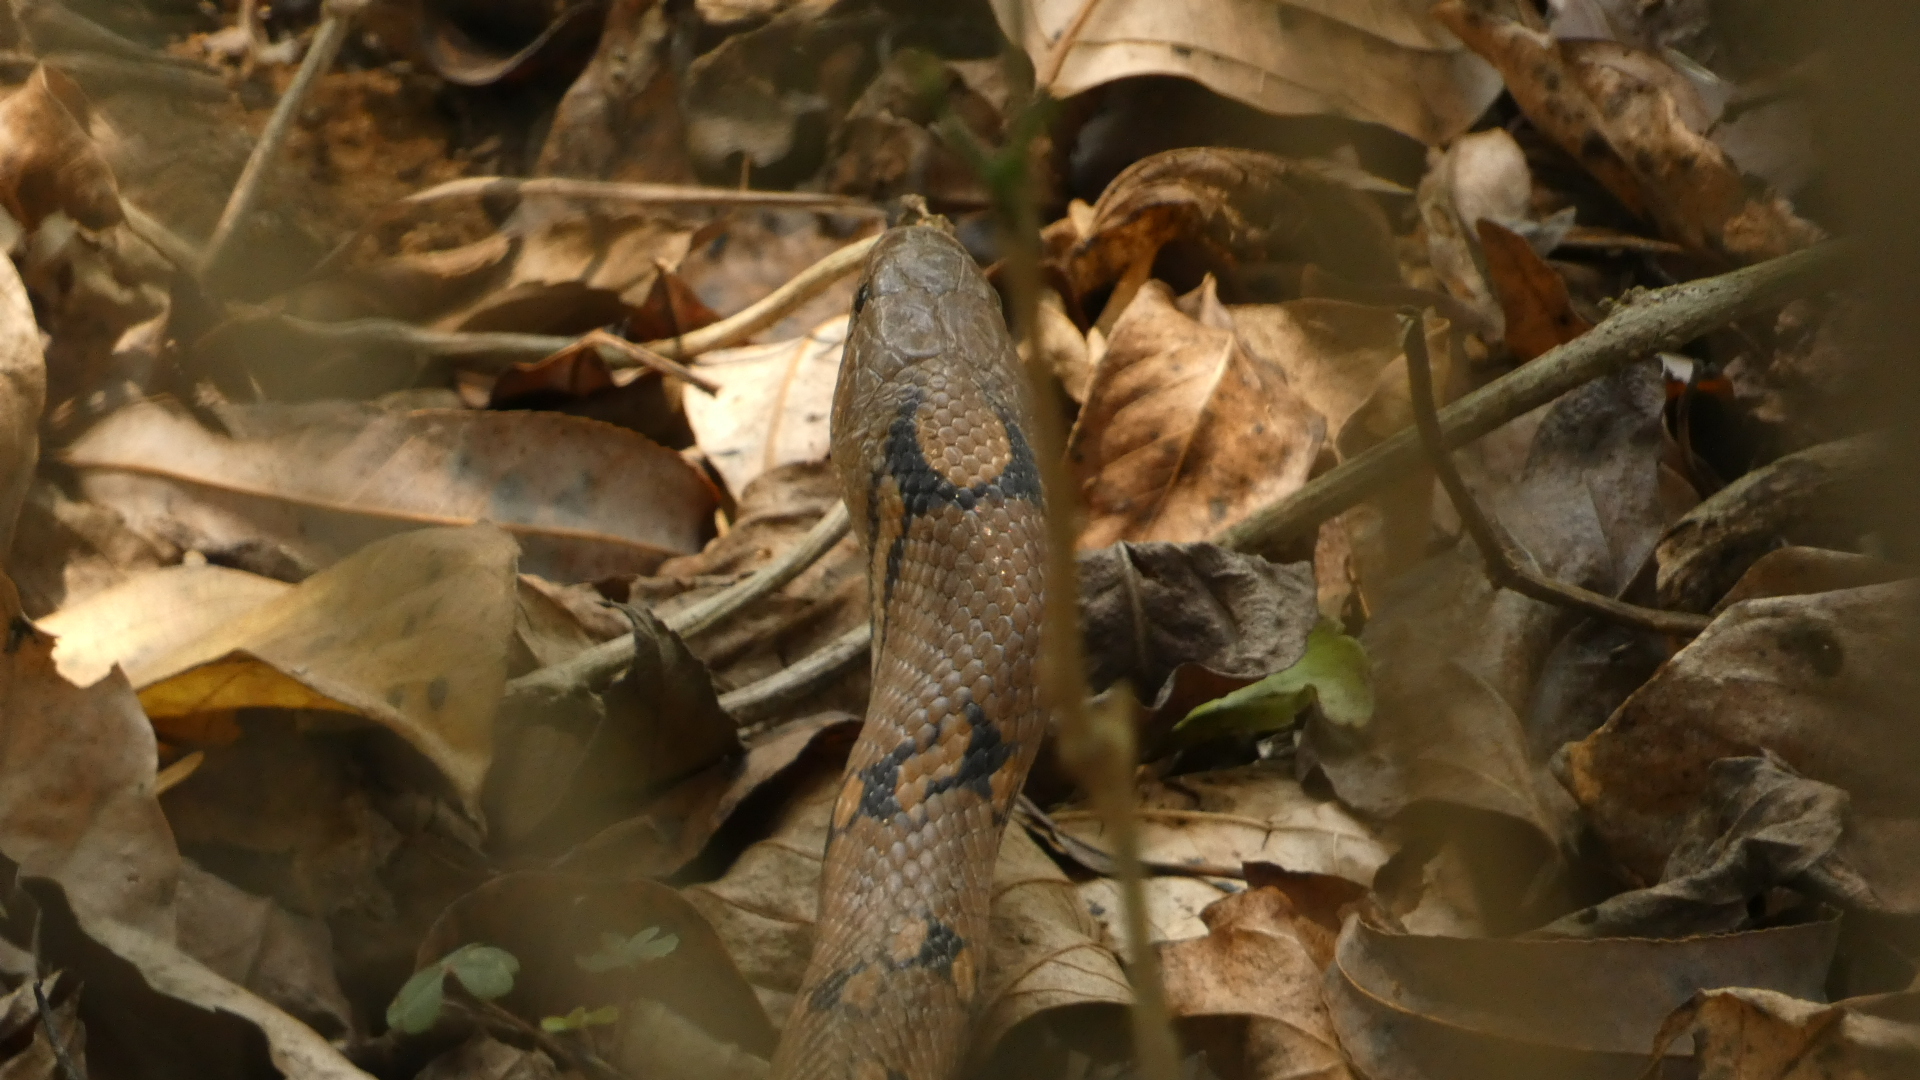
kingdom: Animalia
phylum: Chordata
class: Squamata
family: Colubridae
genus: Coelognathus
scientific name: Coelognathus helena
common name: Trinket snake
